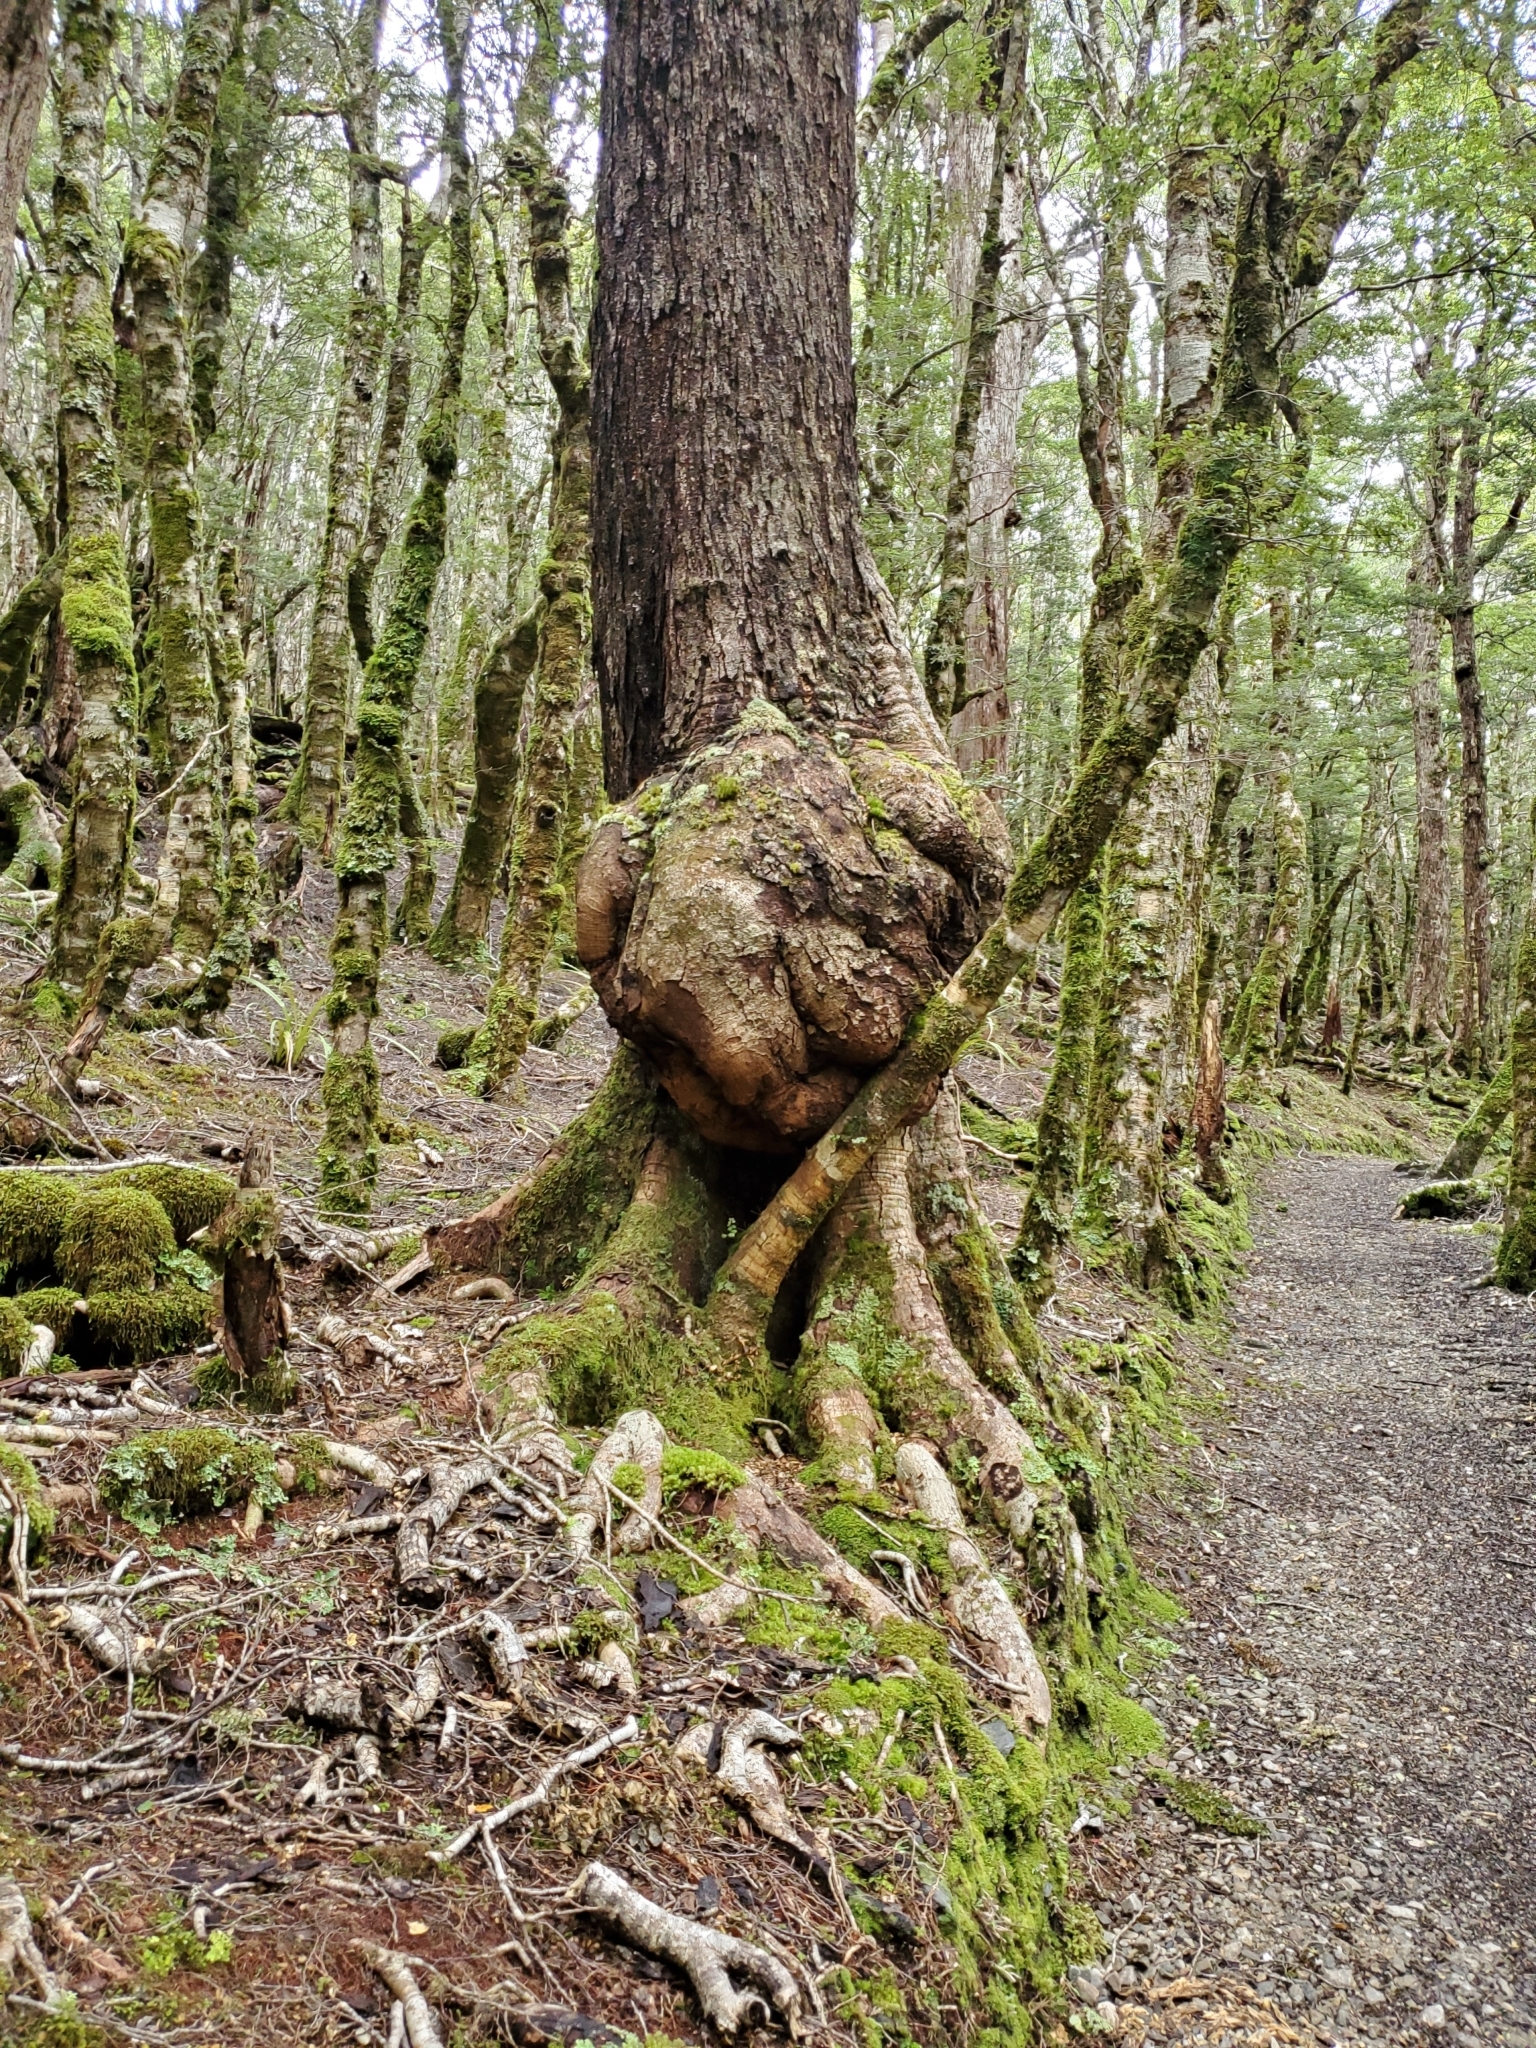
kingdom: Plantae
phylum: Tracheophyta
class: Magnoliopsida
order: Fagales
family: Nothofagaceae
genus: Nothofagus
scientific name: Nothofagus fusca
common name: Red beech
